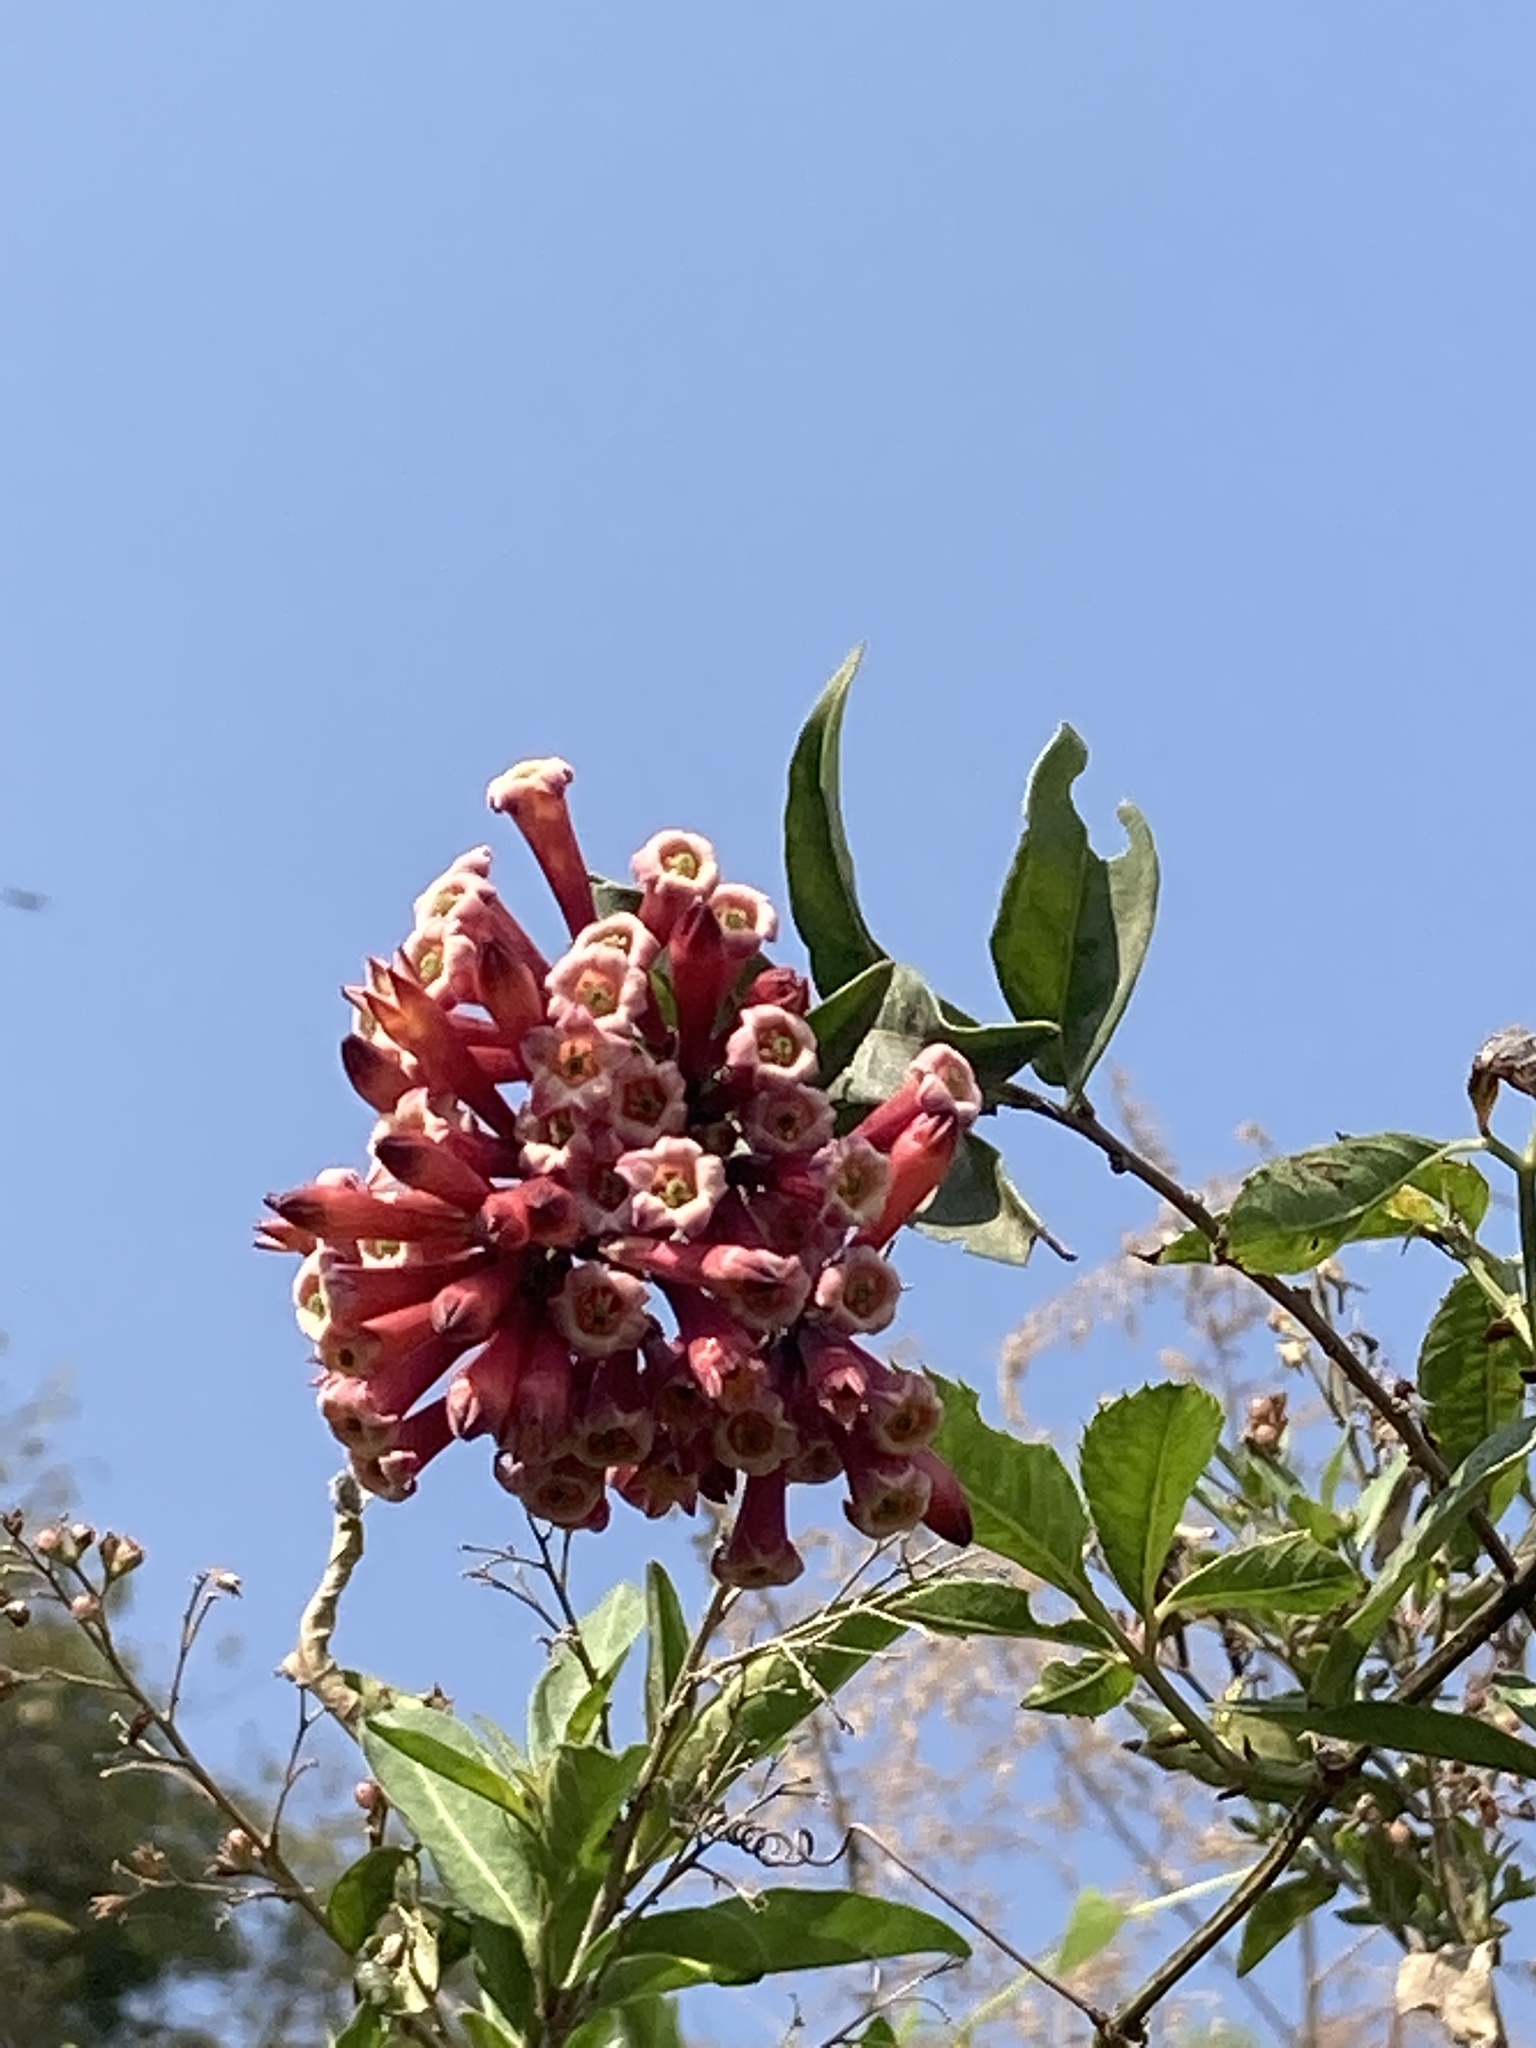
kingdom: Plantae
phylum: Tracheophyta
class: Magnoliopsida
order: Solanales
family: Solanaceae
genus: Cestrum
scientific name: Cestrum fasciculatum
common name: Early jessamine
